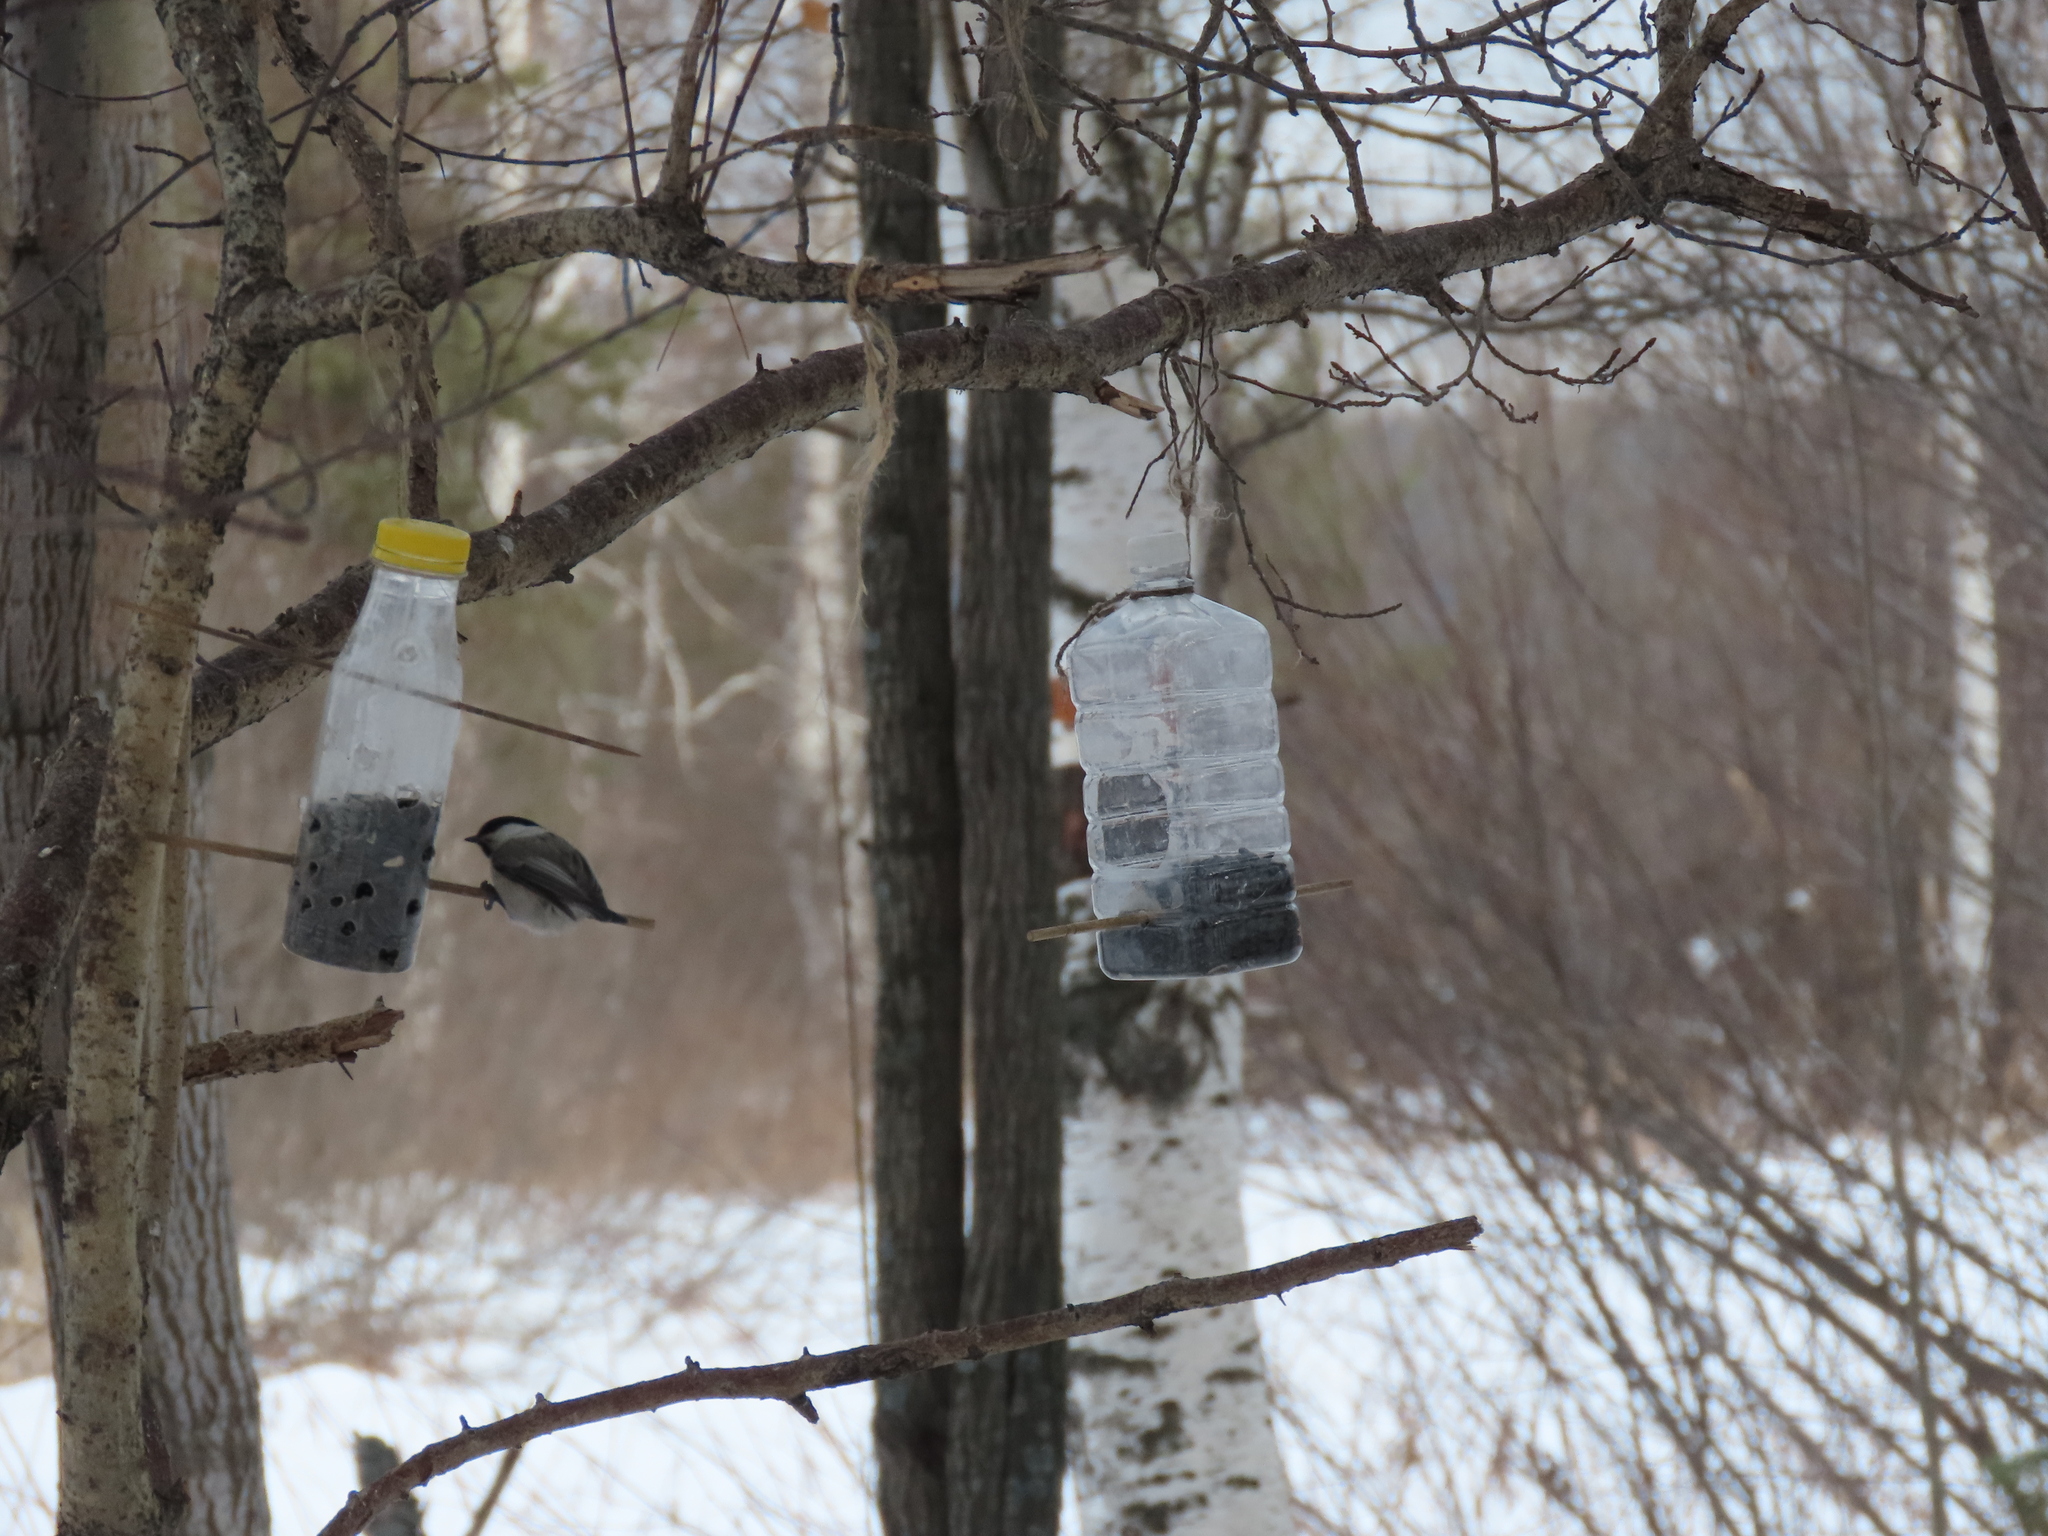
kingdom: Animalia
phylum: Chordata
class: Aves
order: Passeriformes
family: Paridae
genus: Poecile
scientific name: Poecile montanus
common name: Willow tit
